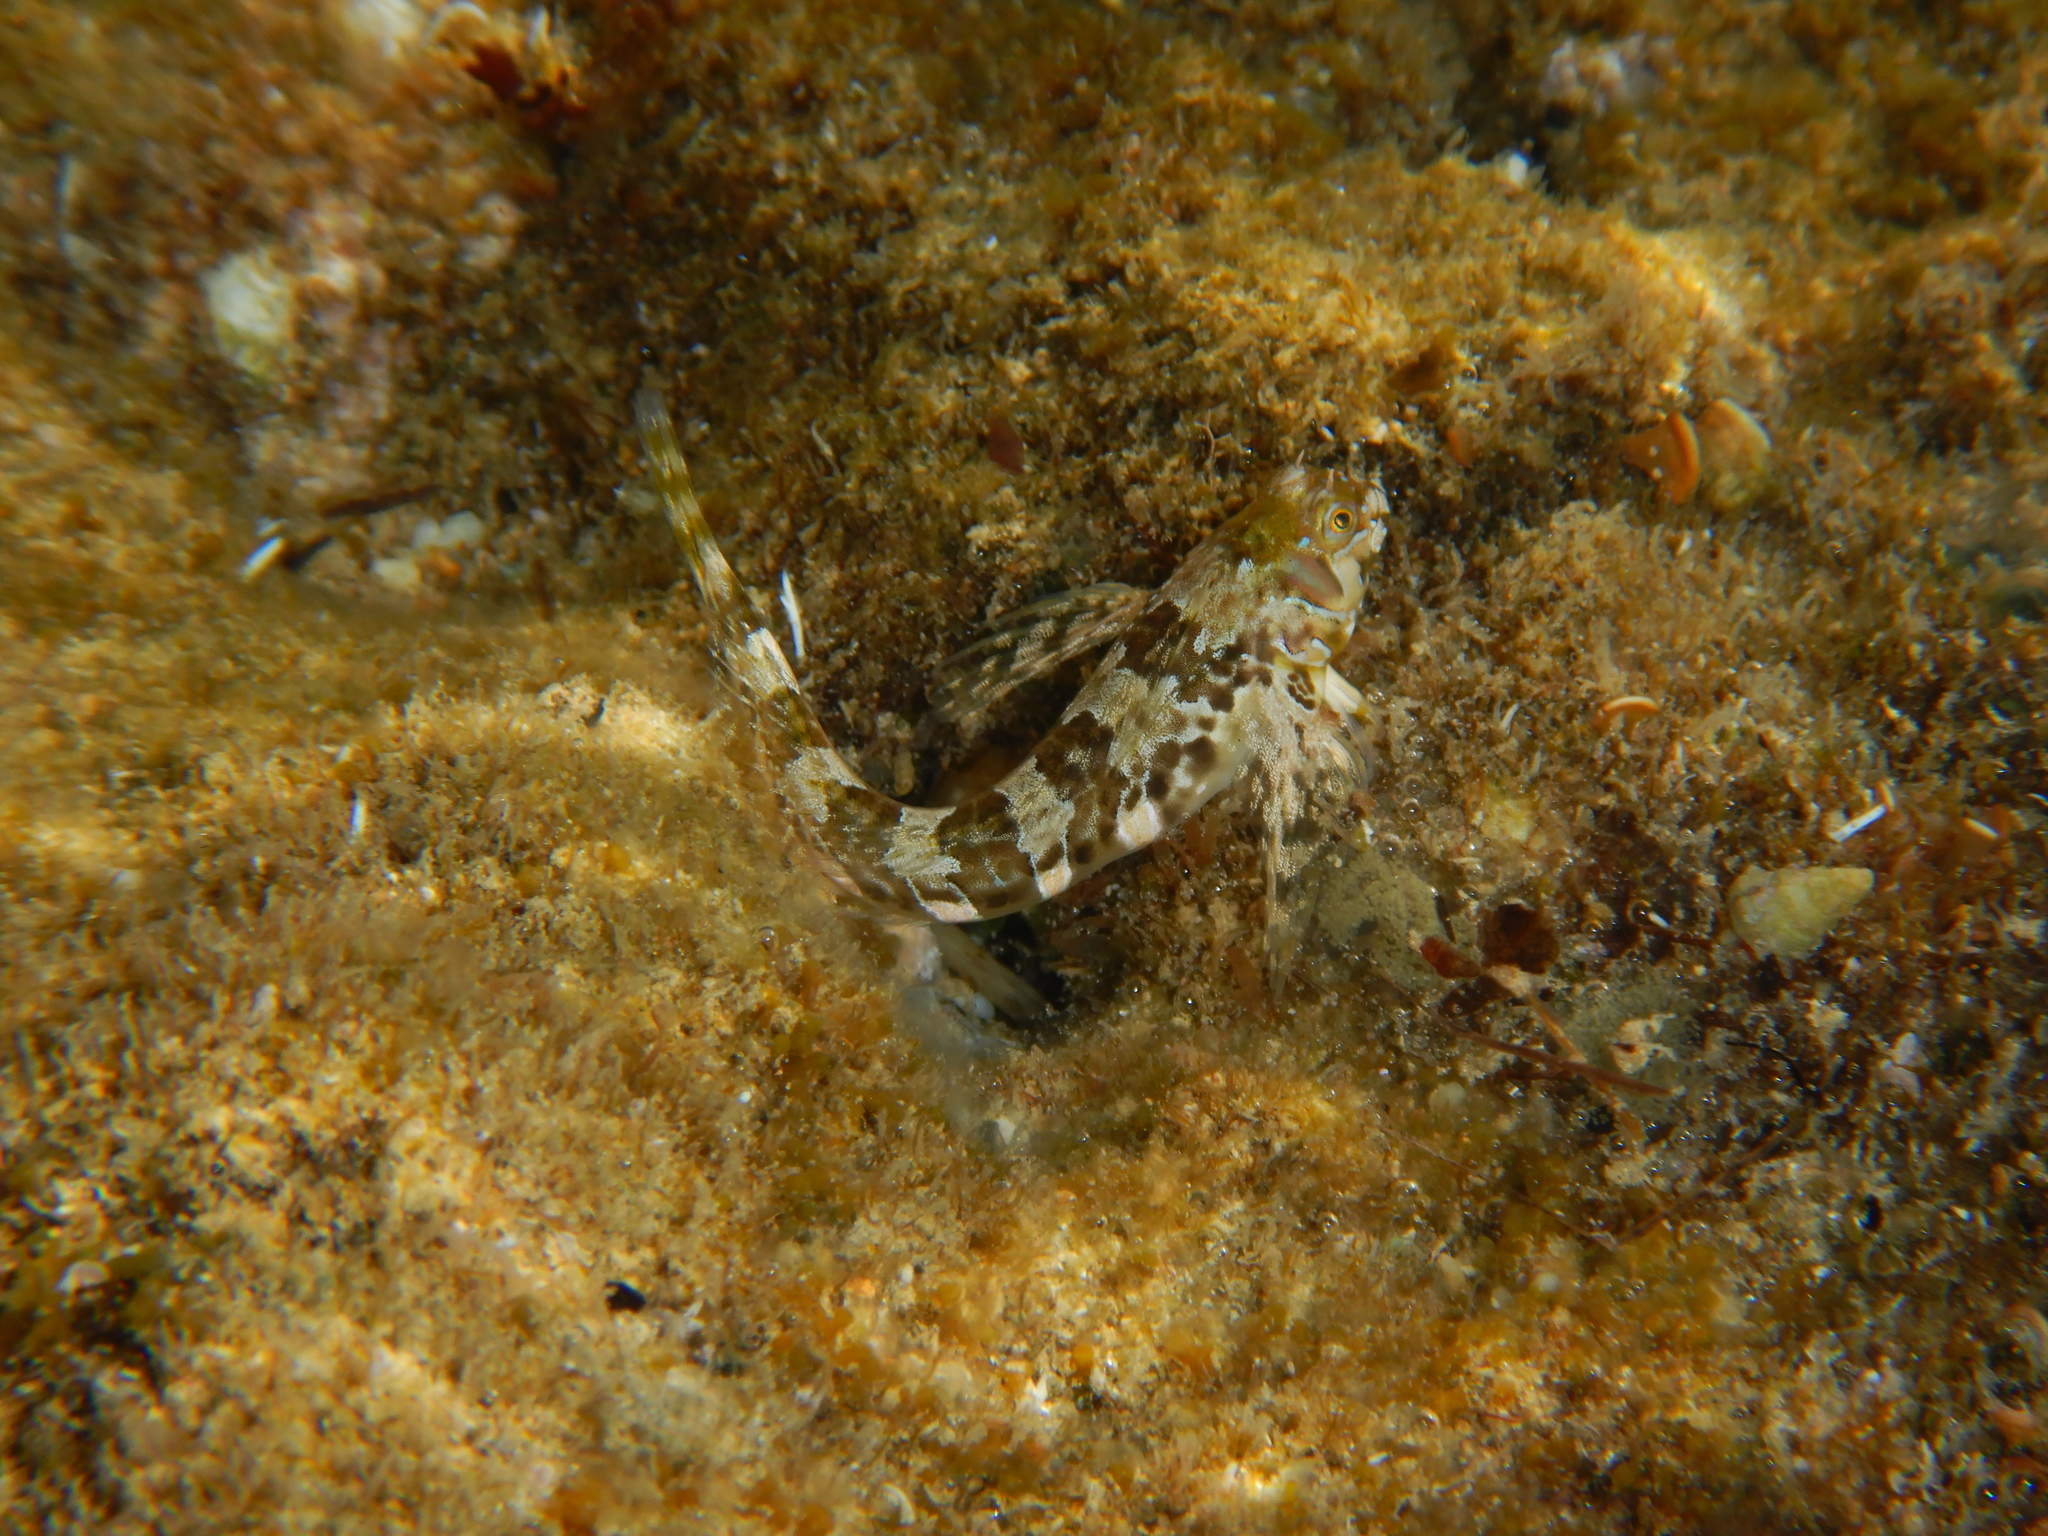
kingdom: Animalia
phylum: Chordata
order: Perciformes
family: Blenniidae
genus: Aidablennius
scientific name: Aidablennius sphynx
